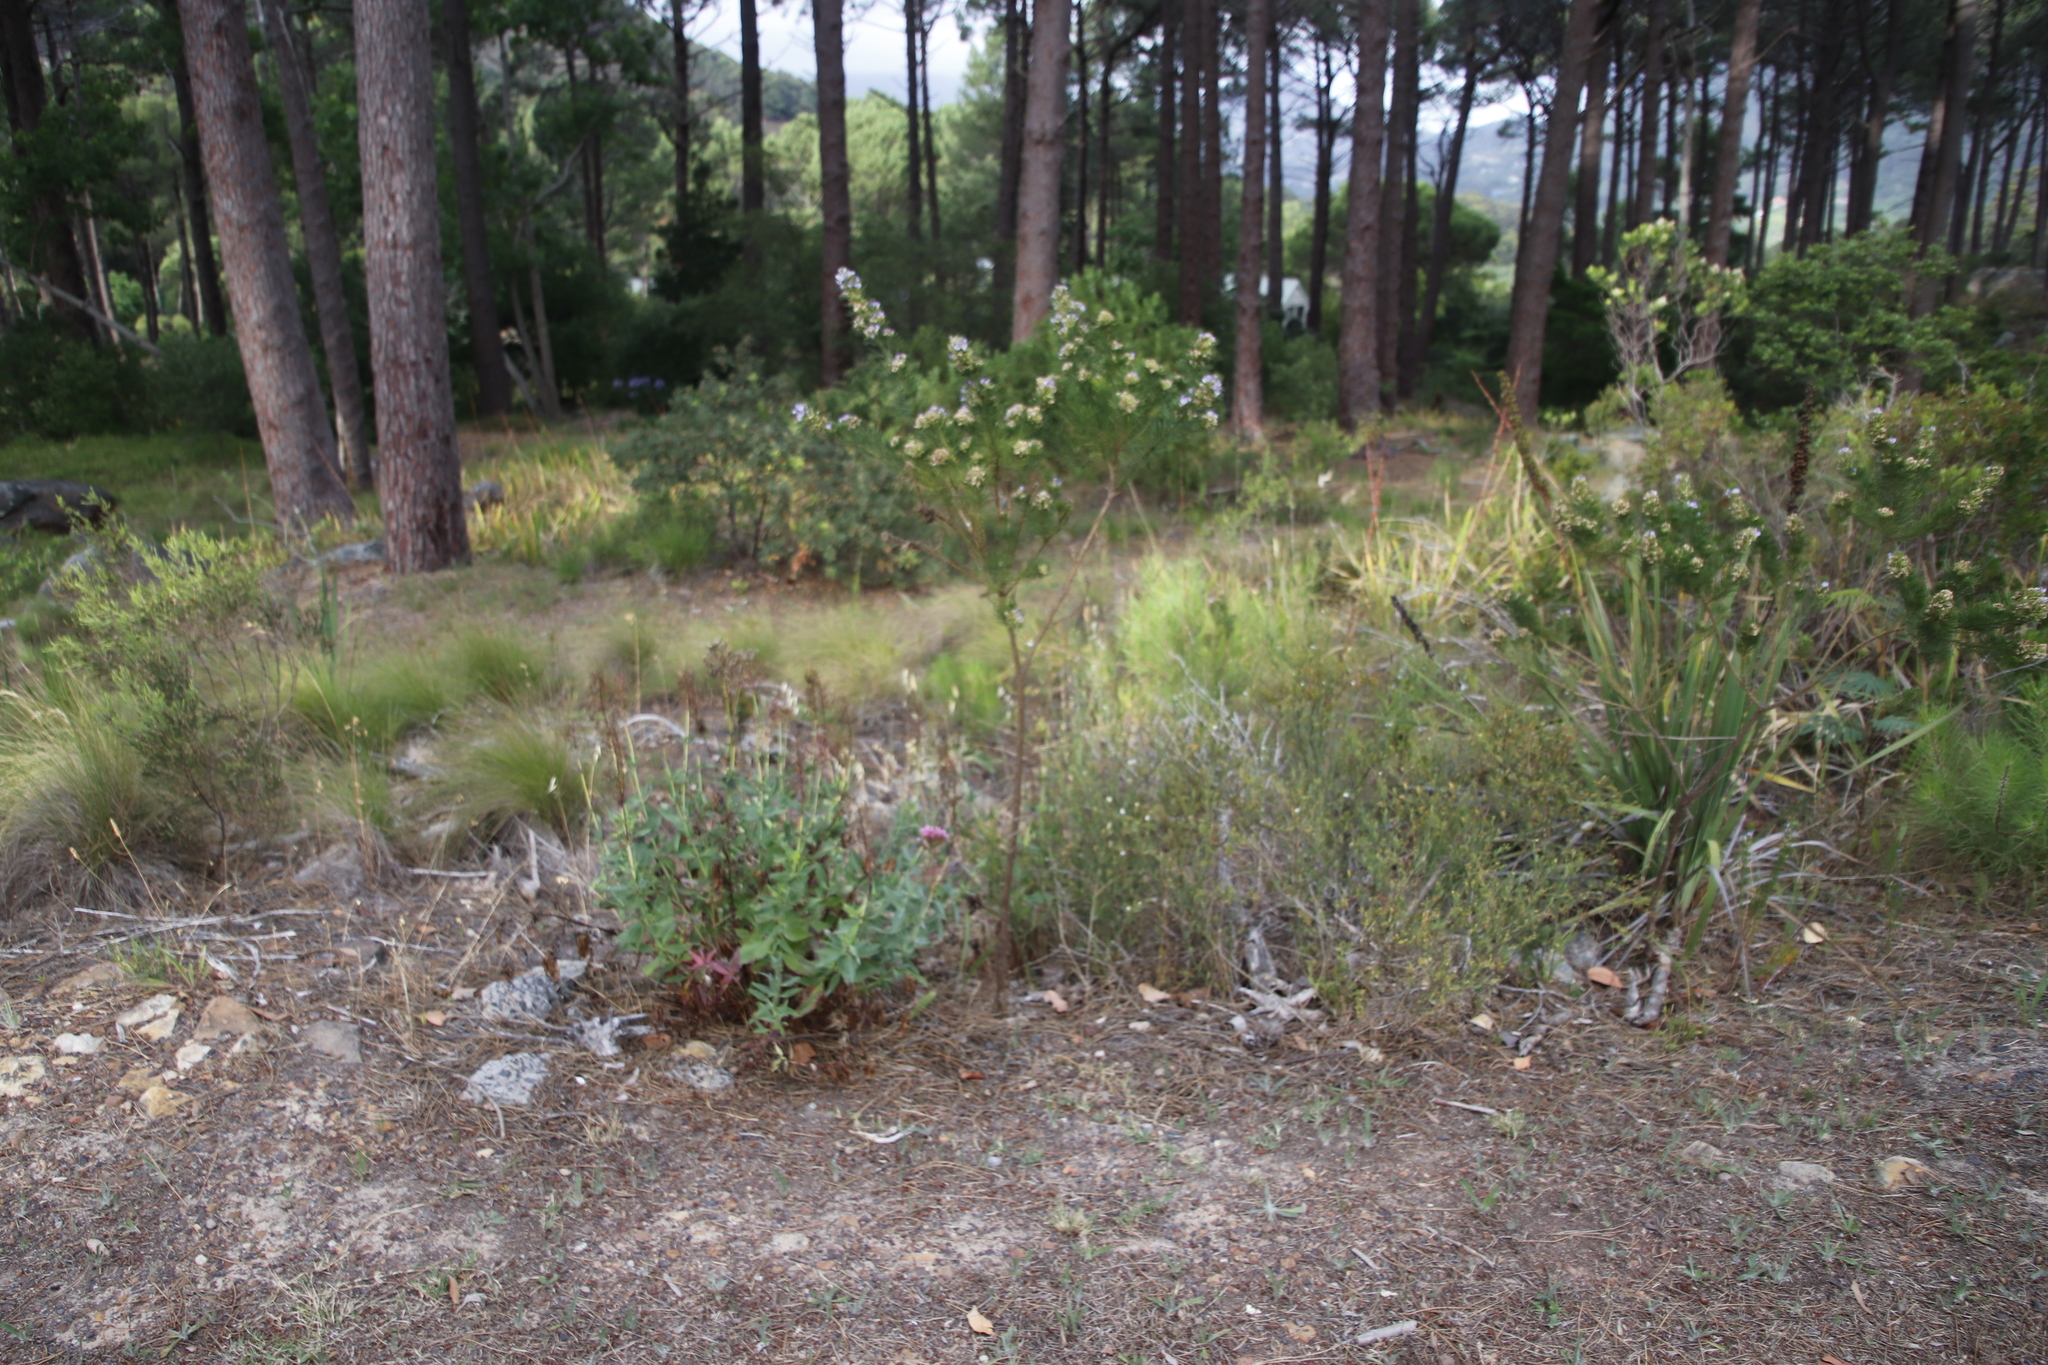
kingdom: Plantae
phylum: Tracheophyta
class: Magnoliopsida
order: Dipsacales
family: Caprifoliaceae
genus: Centranthus
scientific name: Centranthus ruber
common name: Red valerian
